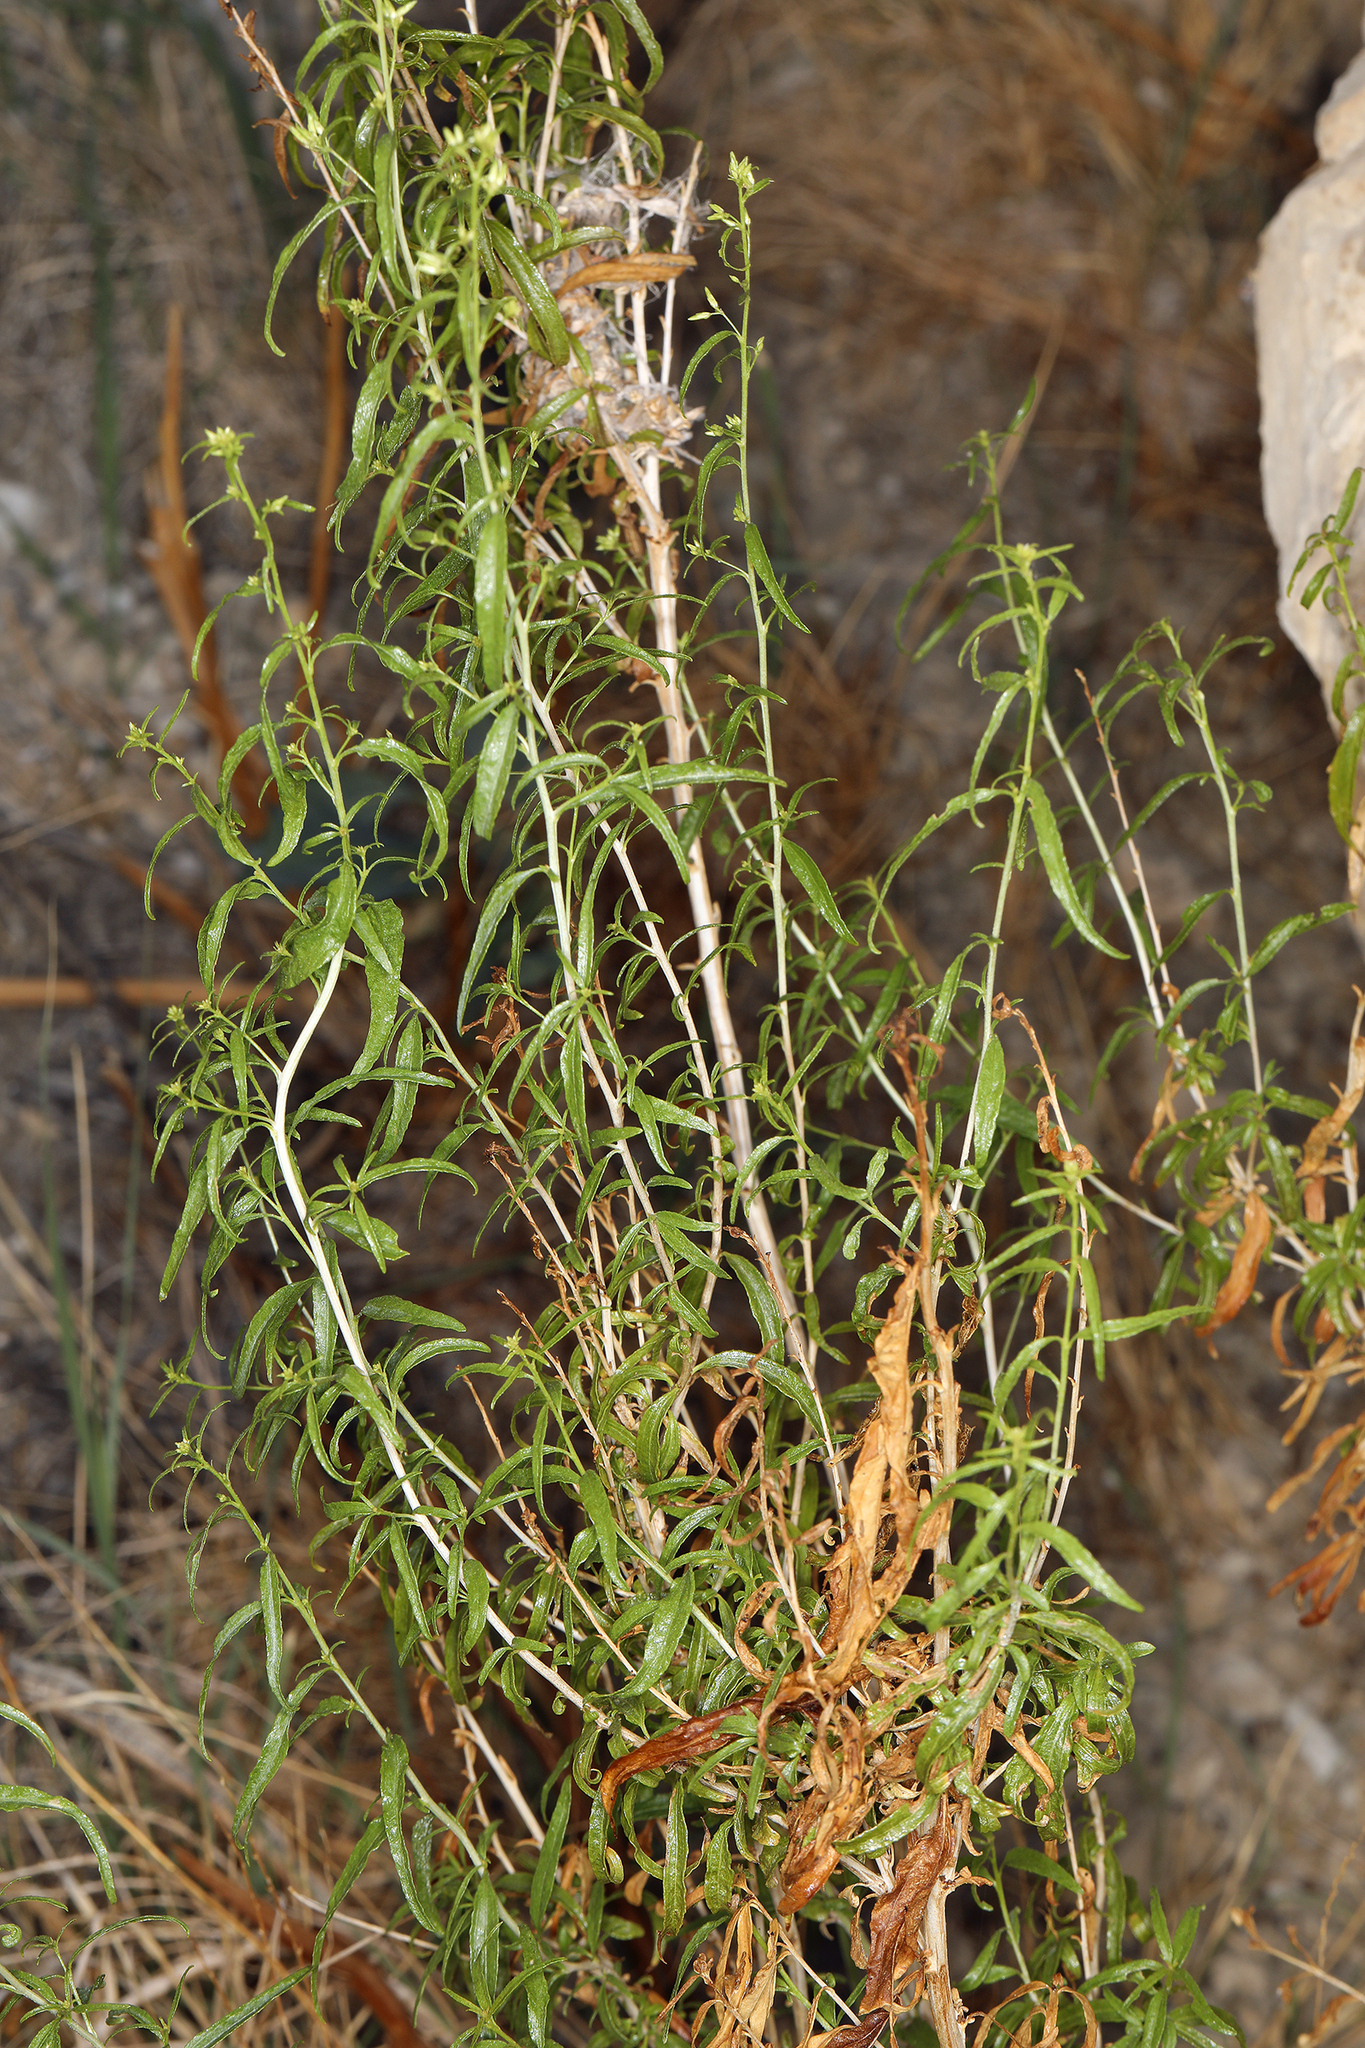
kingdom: Plantae
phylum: Tracheophyta
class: Magnoliopsida
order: Asterales
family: Asteraceae
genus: Brickellia
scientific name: Brickellia longifolia
